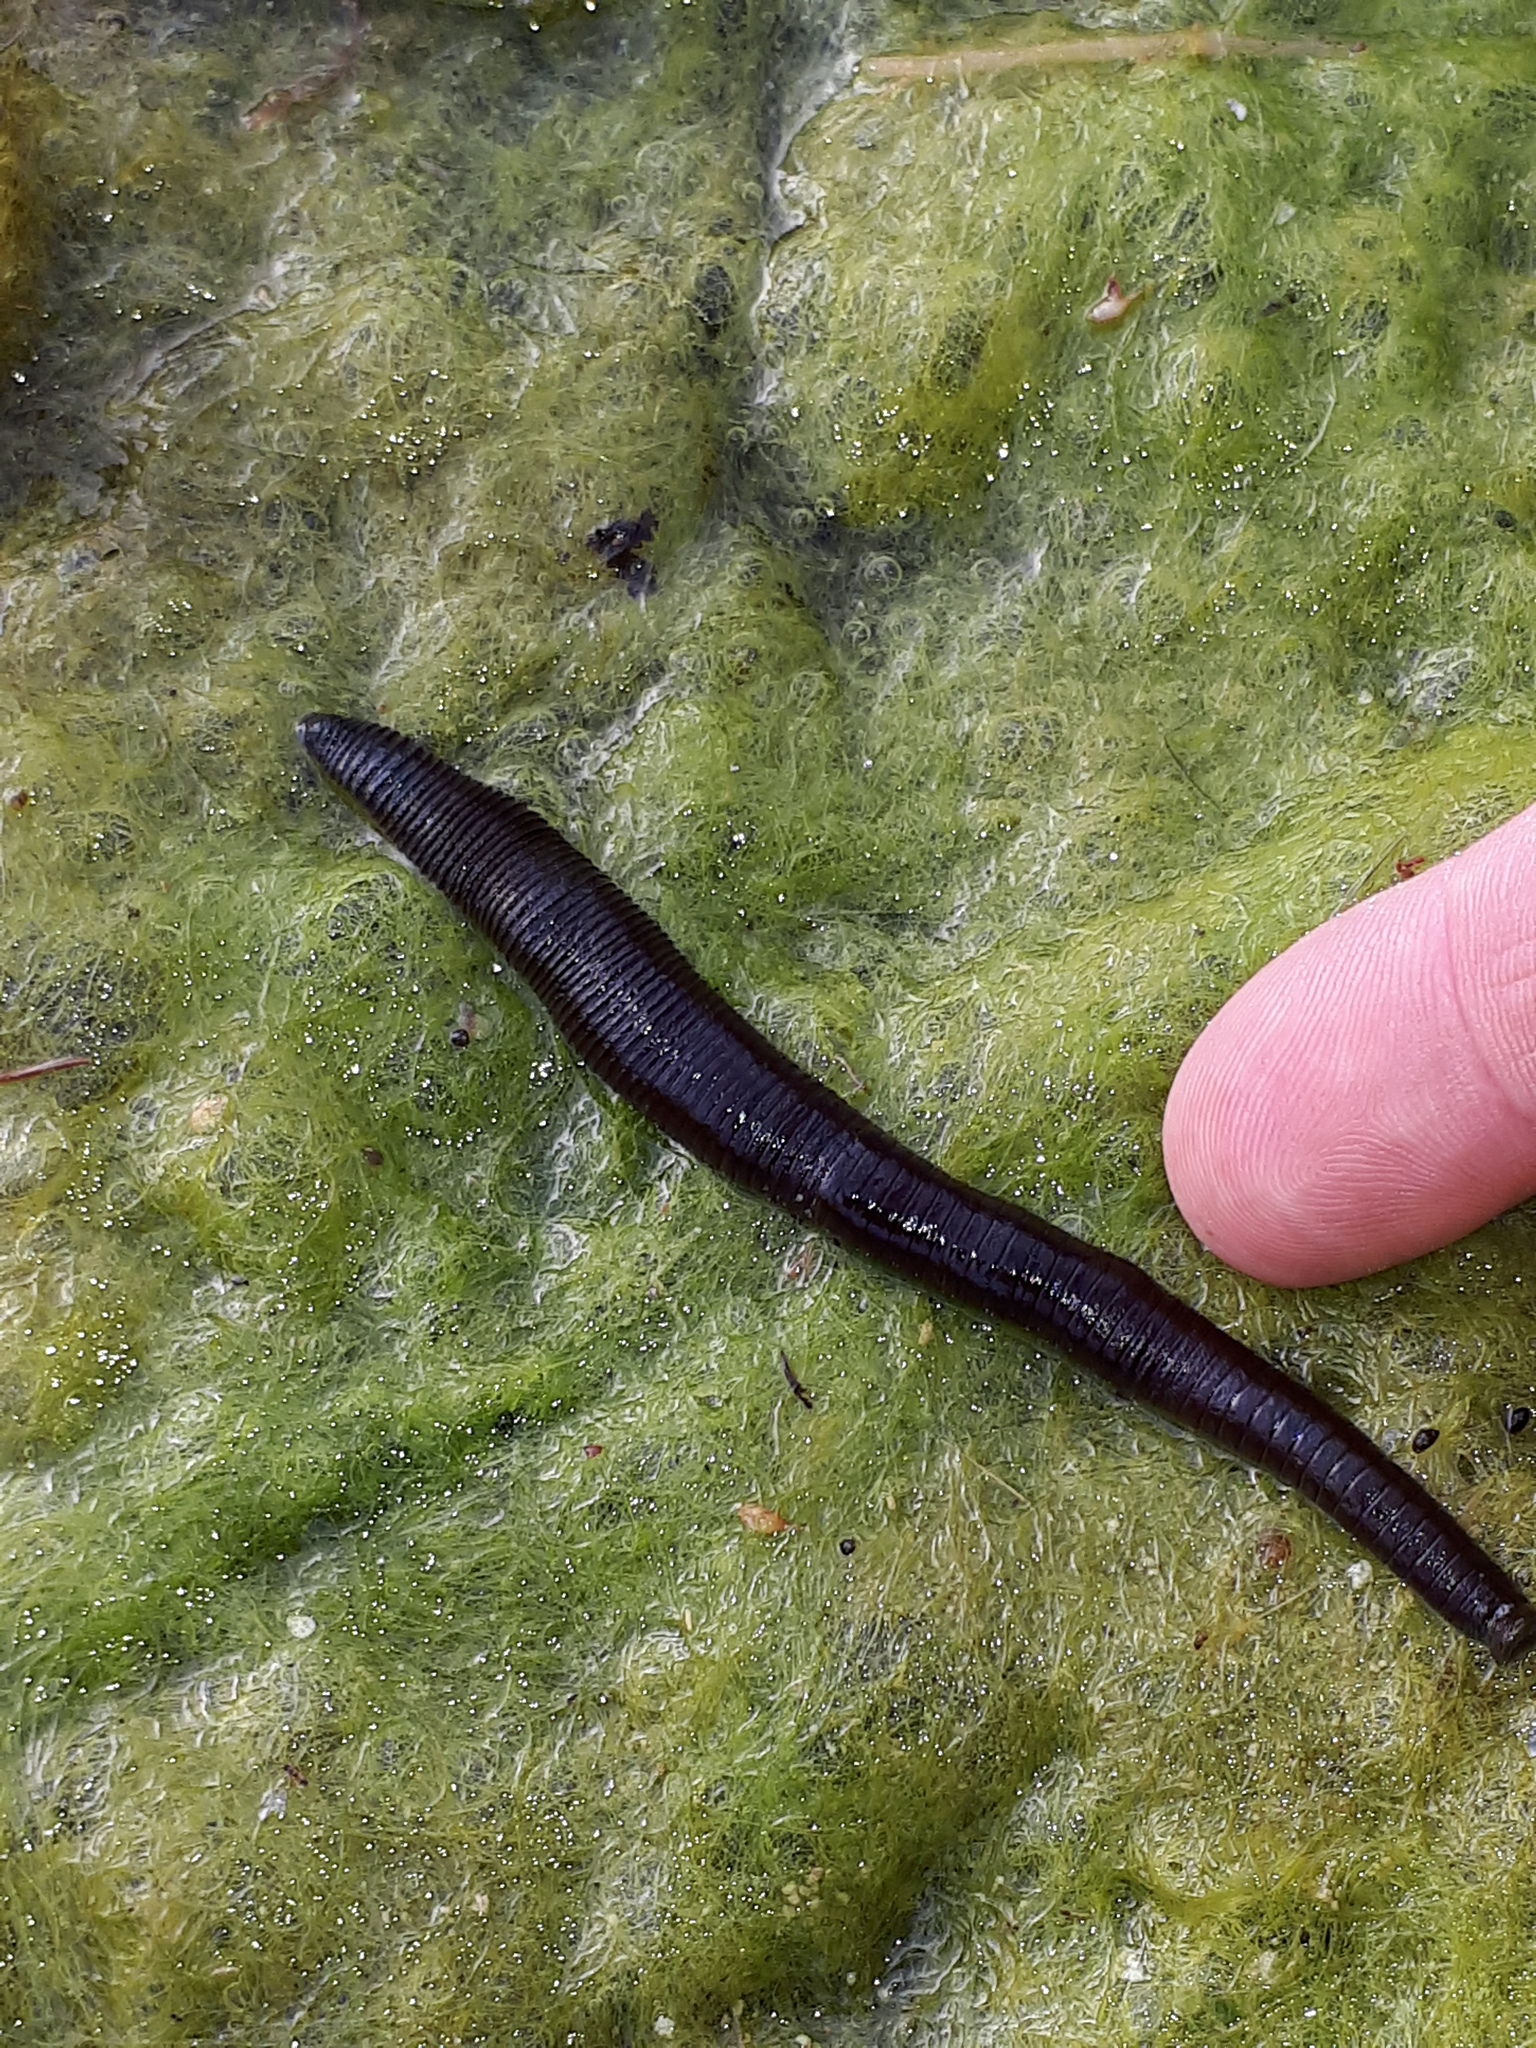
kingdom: Animalia
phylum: Annelida
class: Clitellata
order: Arhynchobdellida
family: Haemopidae
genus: Haemopis
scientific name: Haemopis sanguisuga
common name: Horse leech
